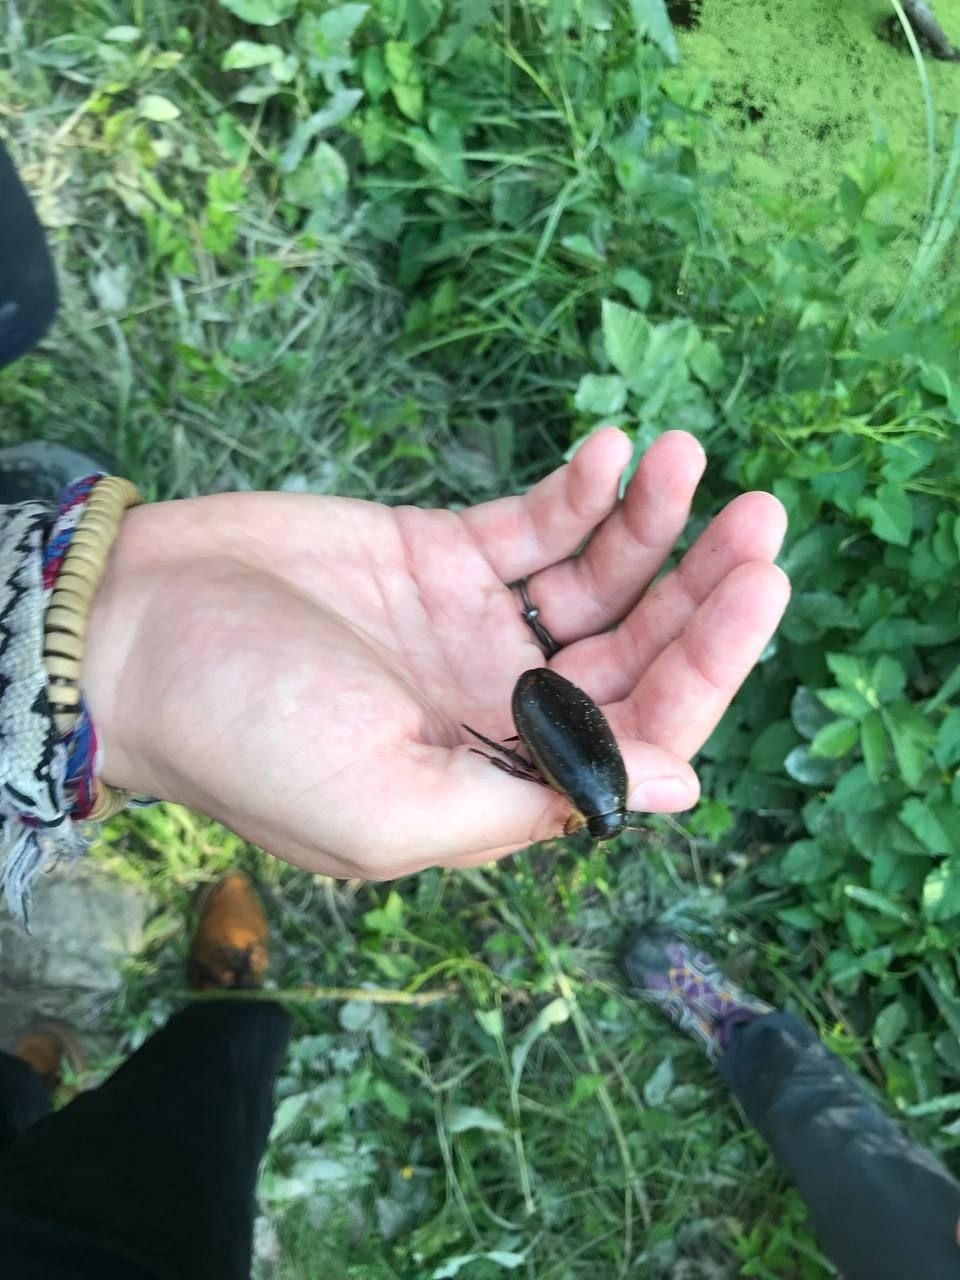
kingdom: Animalia
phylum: Arthropoda
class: Insecta
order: Coleoptera
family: Dytiscidae
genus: Dytiscus
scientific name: Dytiscus dimidiatus
